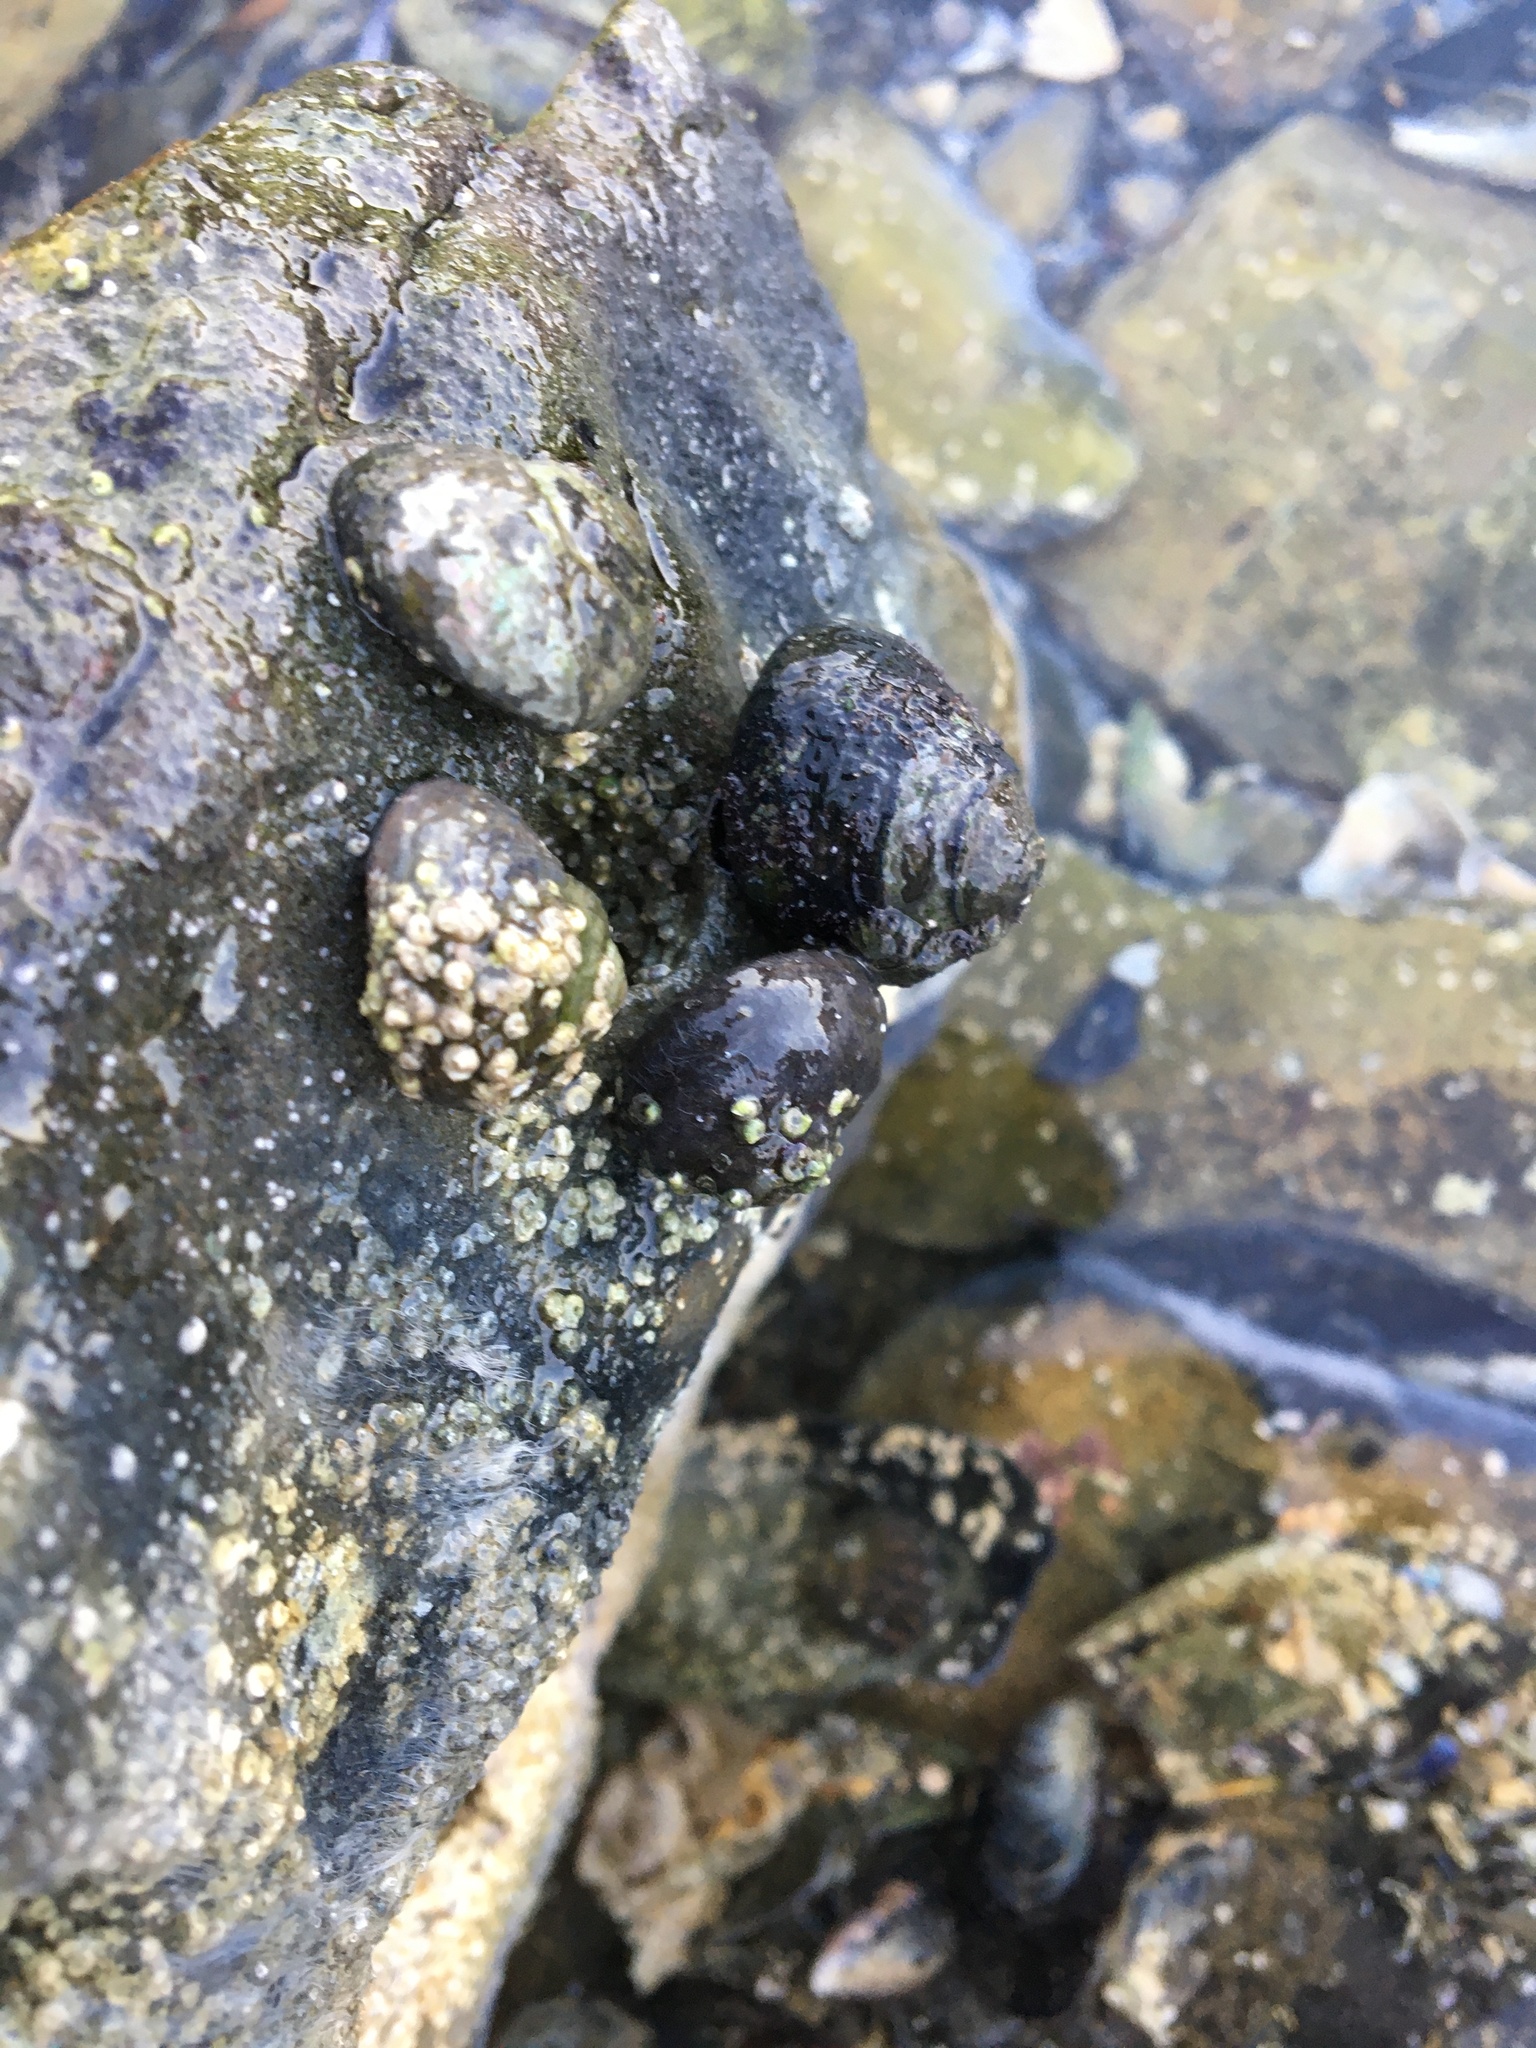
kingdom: Animalia
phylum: Mollusca
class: Gastropoda
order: Trochida
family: Tegulidae
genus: Tegula
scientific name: Tegula funebralis
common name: Black tegula
